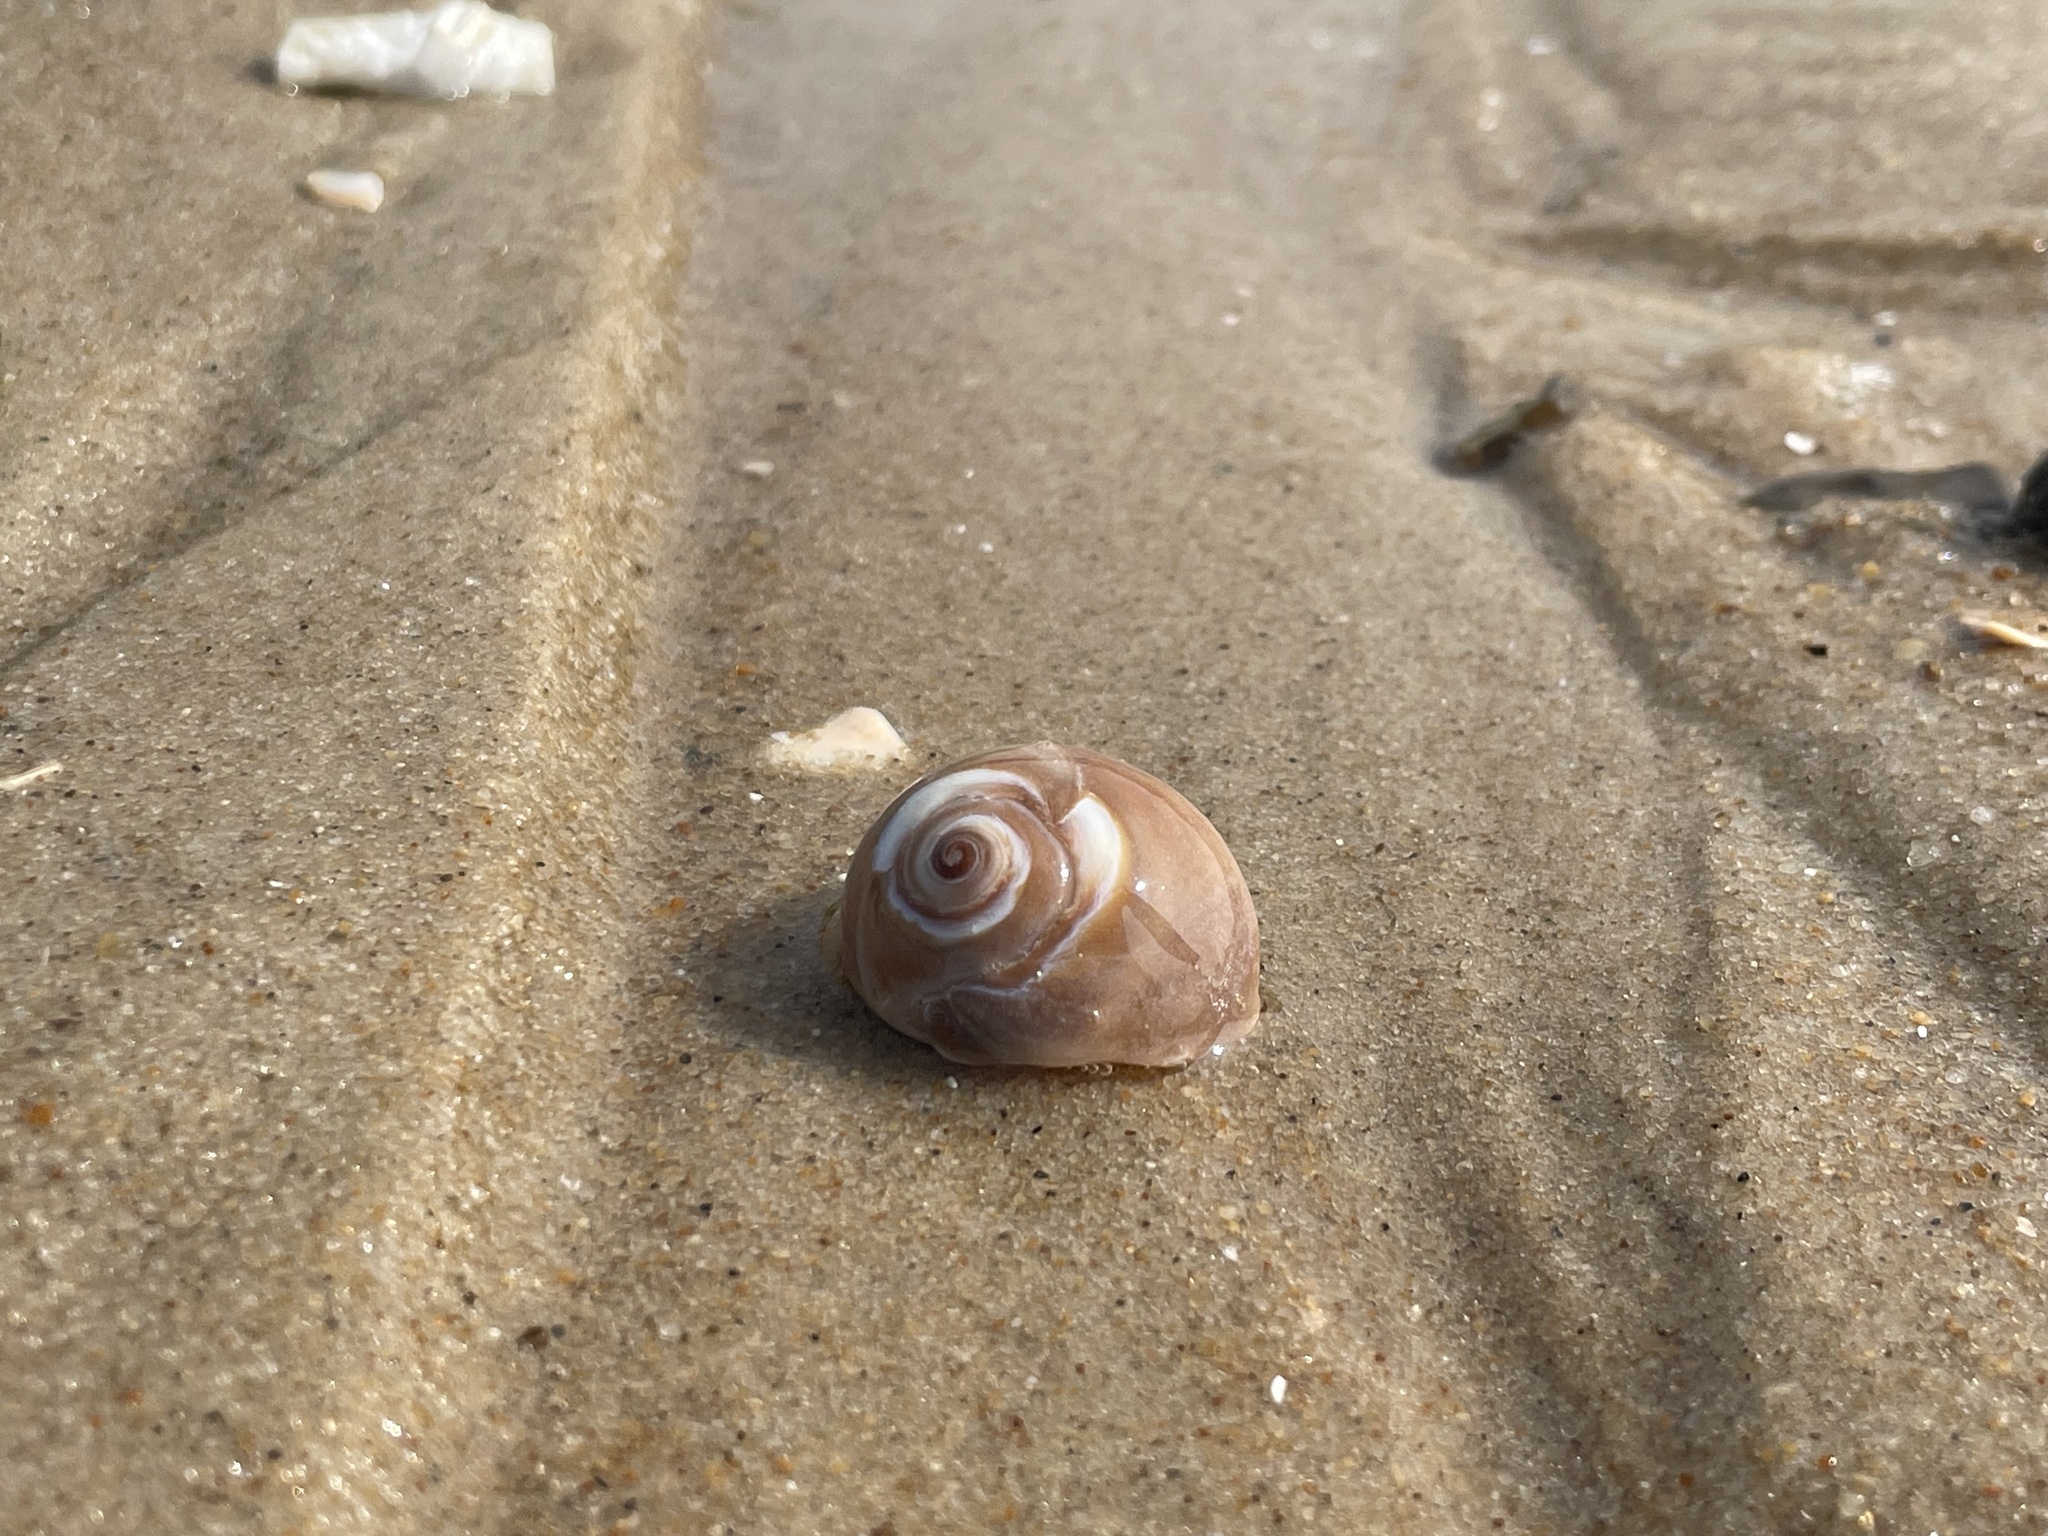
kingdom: Animalia
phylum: Mollusca
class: Gastropoda
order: Littorinimorpha
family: Naticidae
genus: Neverita
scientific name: Neverita duplicata
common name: Lobed moonsnail
